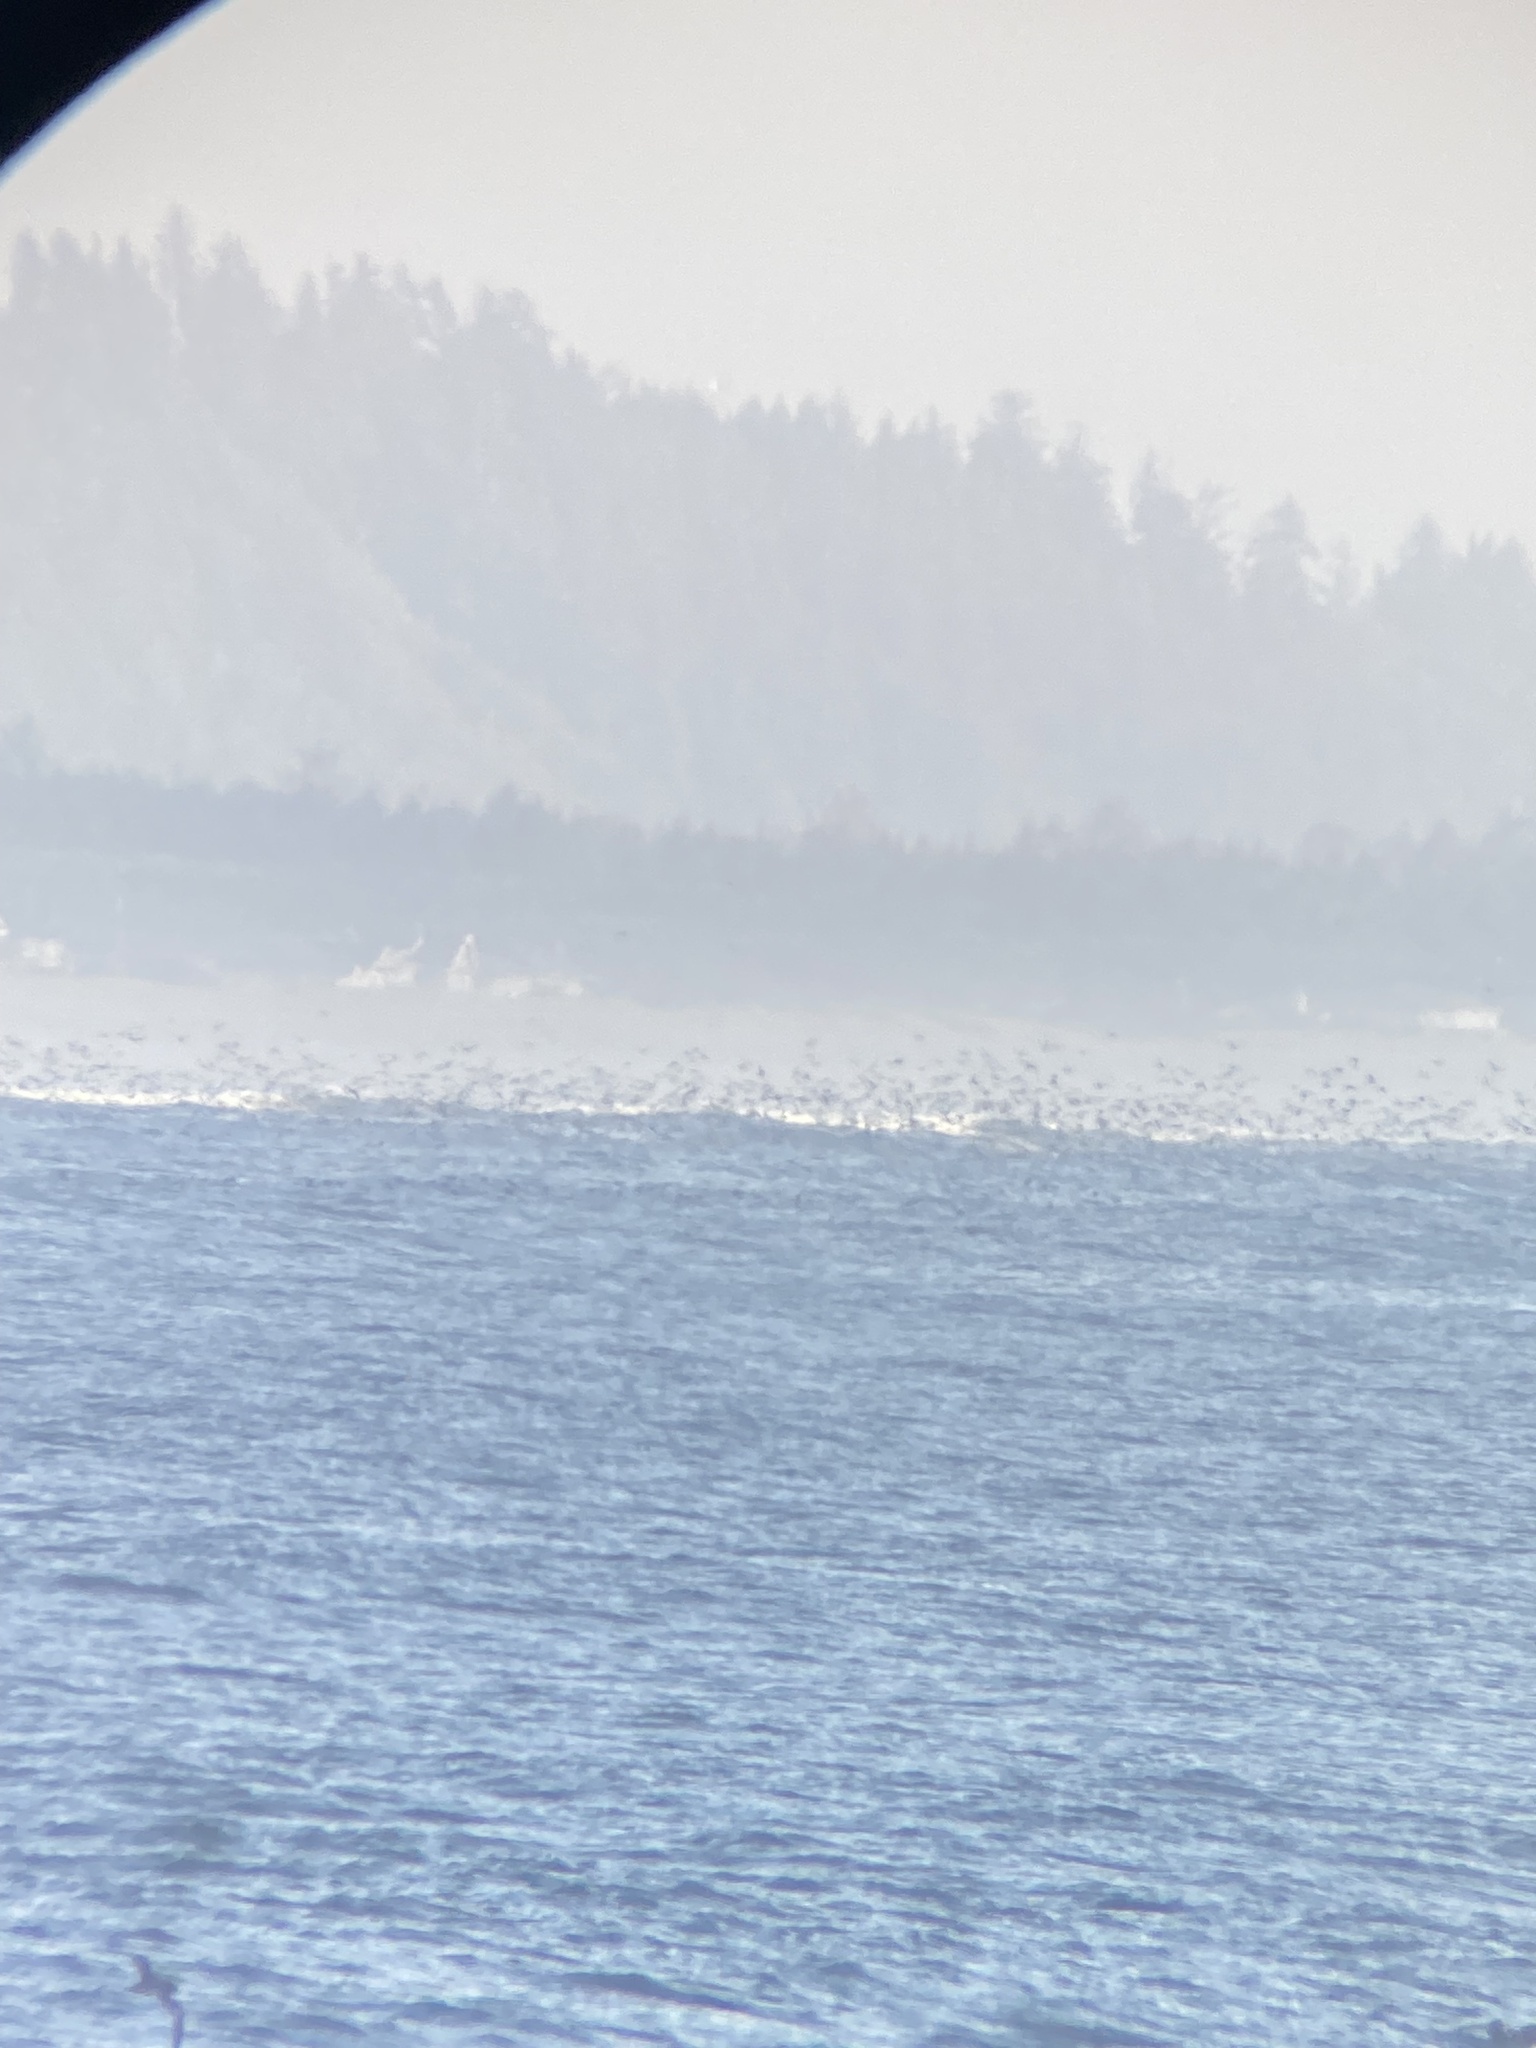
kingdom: Animalia
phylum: Chordata
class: Aves
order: Procellariiformes
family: Procellariidae
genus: Puffinus
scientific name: Puffinus griseus
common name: Sooty shearwater
